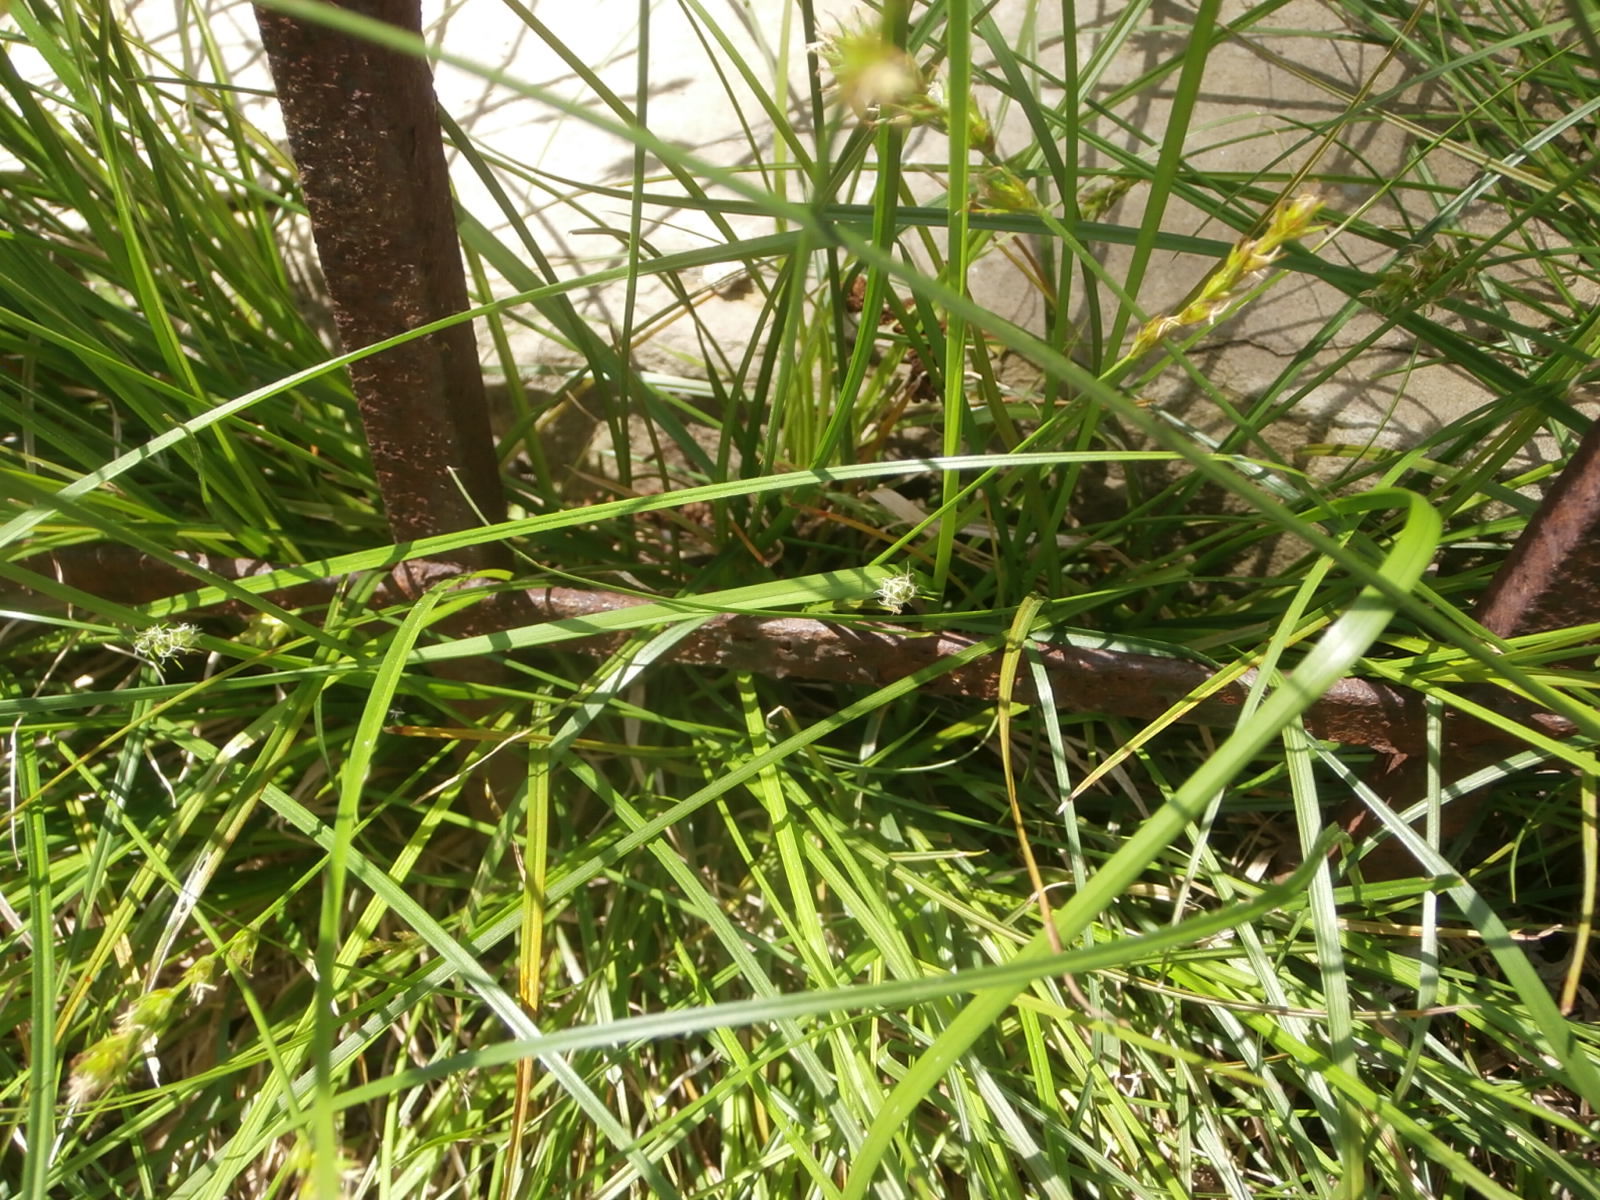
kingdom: Plantae
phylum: Tracheophyta
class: Liliopsida
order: Poales
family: Cyperaceae
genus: Carex
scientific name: Carex spicata
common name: Spiked sedge
